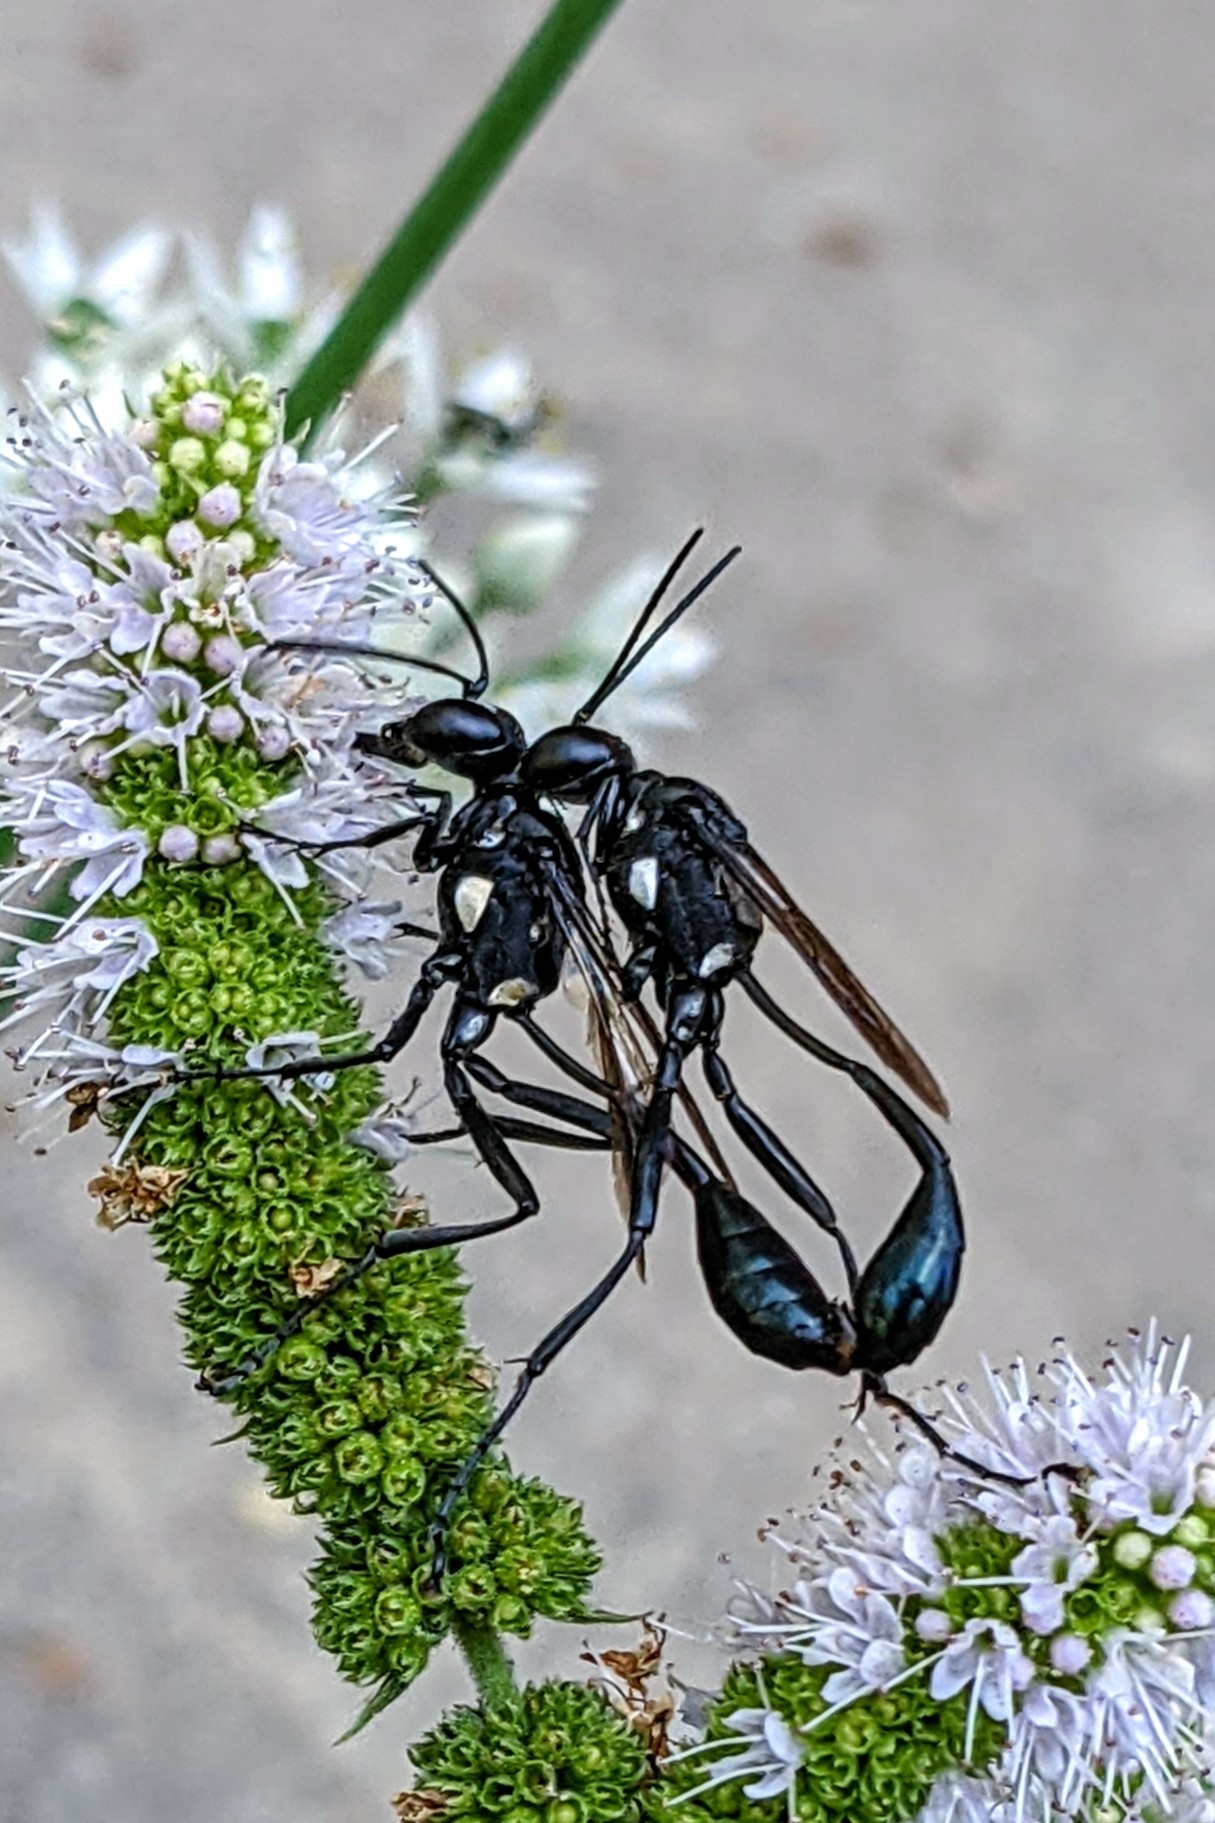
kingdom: Animalia
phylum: Arthropoda
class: Insecta
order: Hymenoptera
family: Sphecidae
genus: Eremnophila
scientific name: Eremnophila aureonotata
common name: Gold-marked thread-waisted wasp
